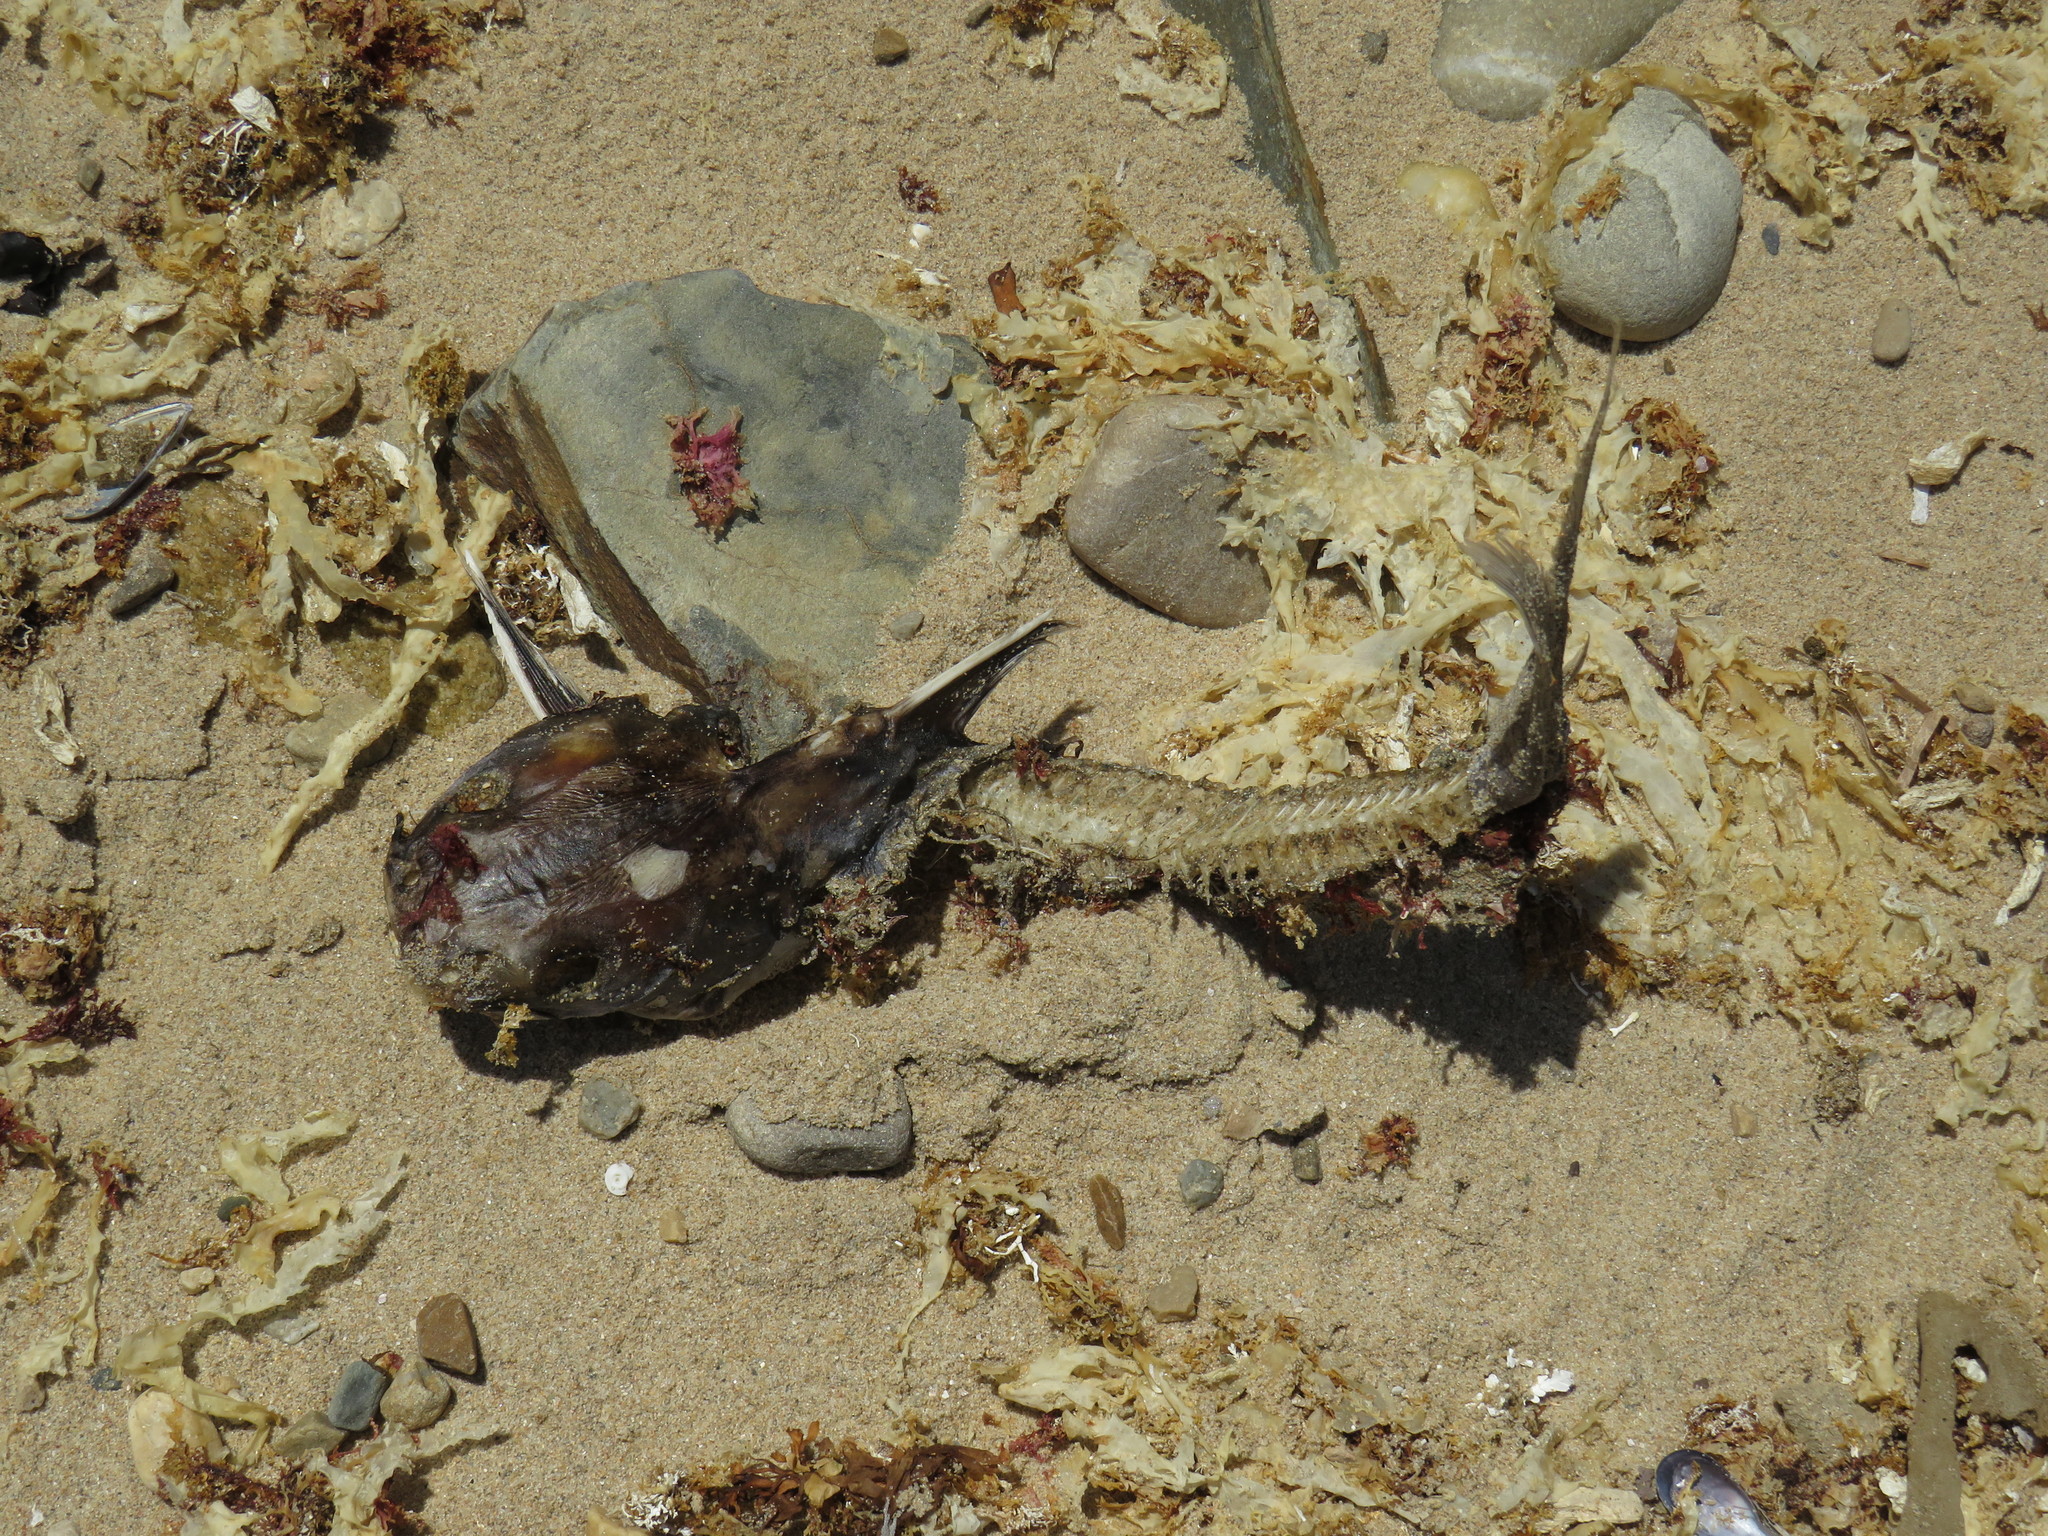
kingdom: Animalia
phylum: Chordata
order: Siluriformes
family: Ariidae
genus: Galeichthys
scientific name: Galeichthys feliceps
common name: White seacatfish
